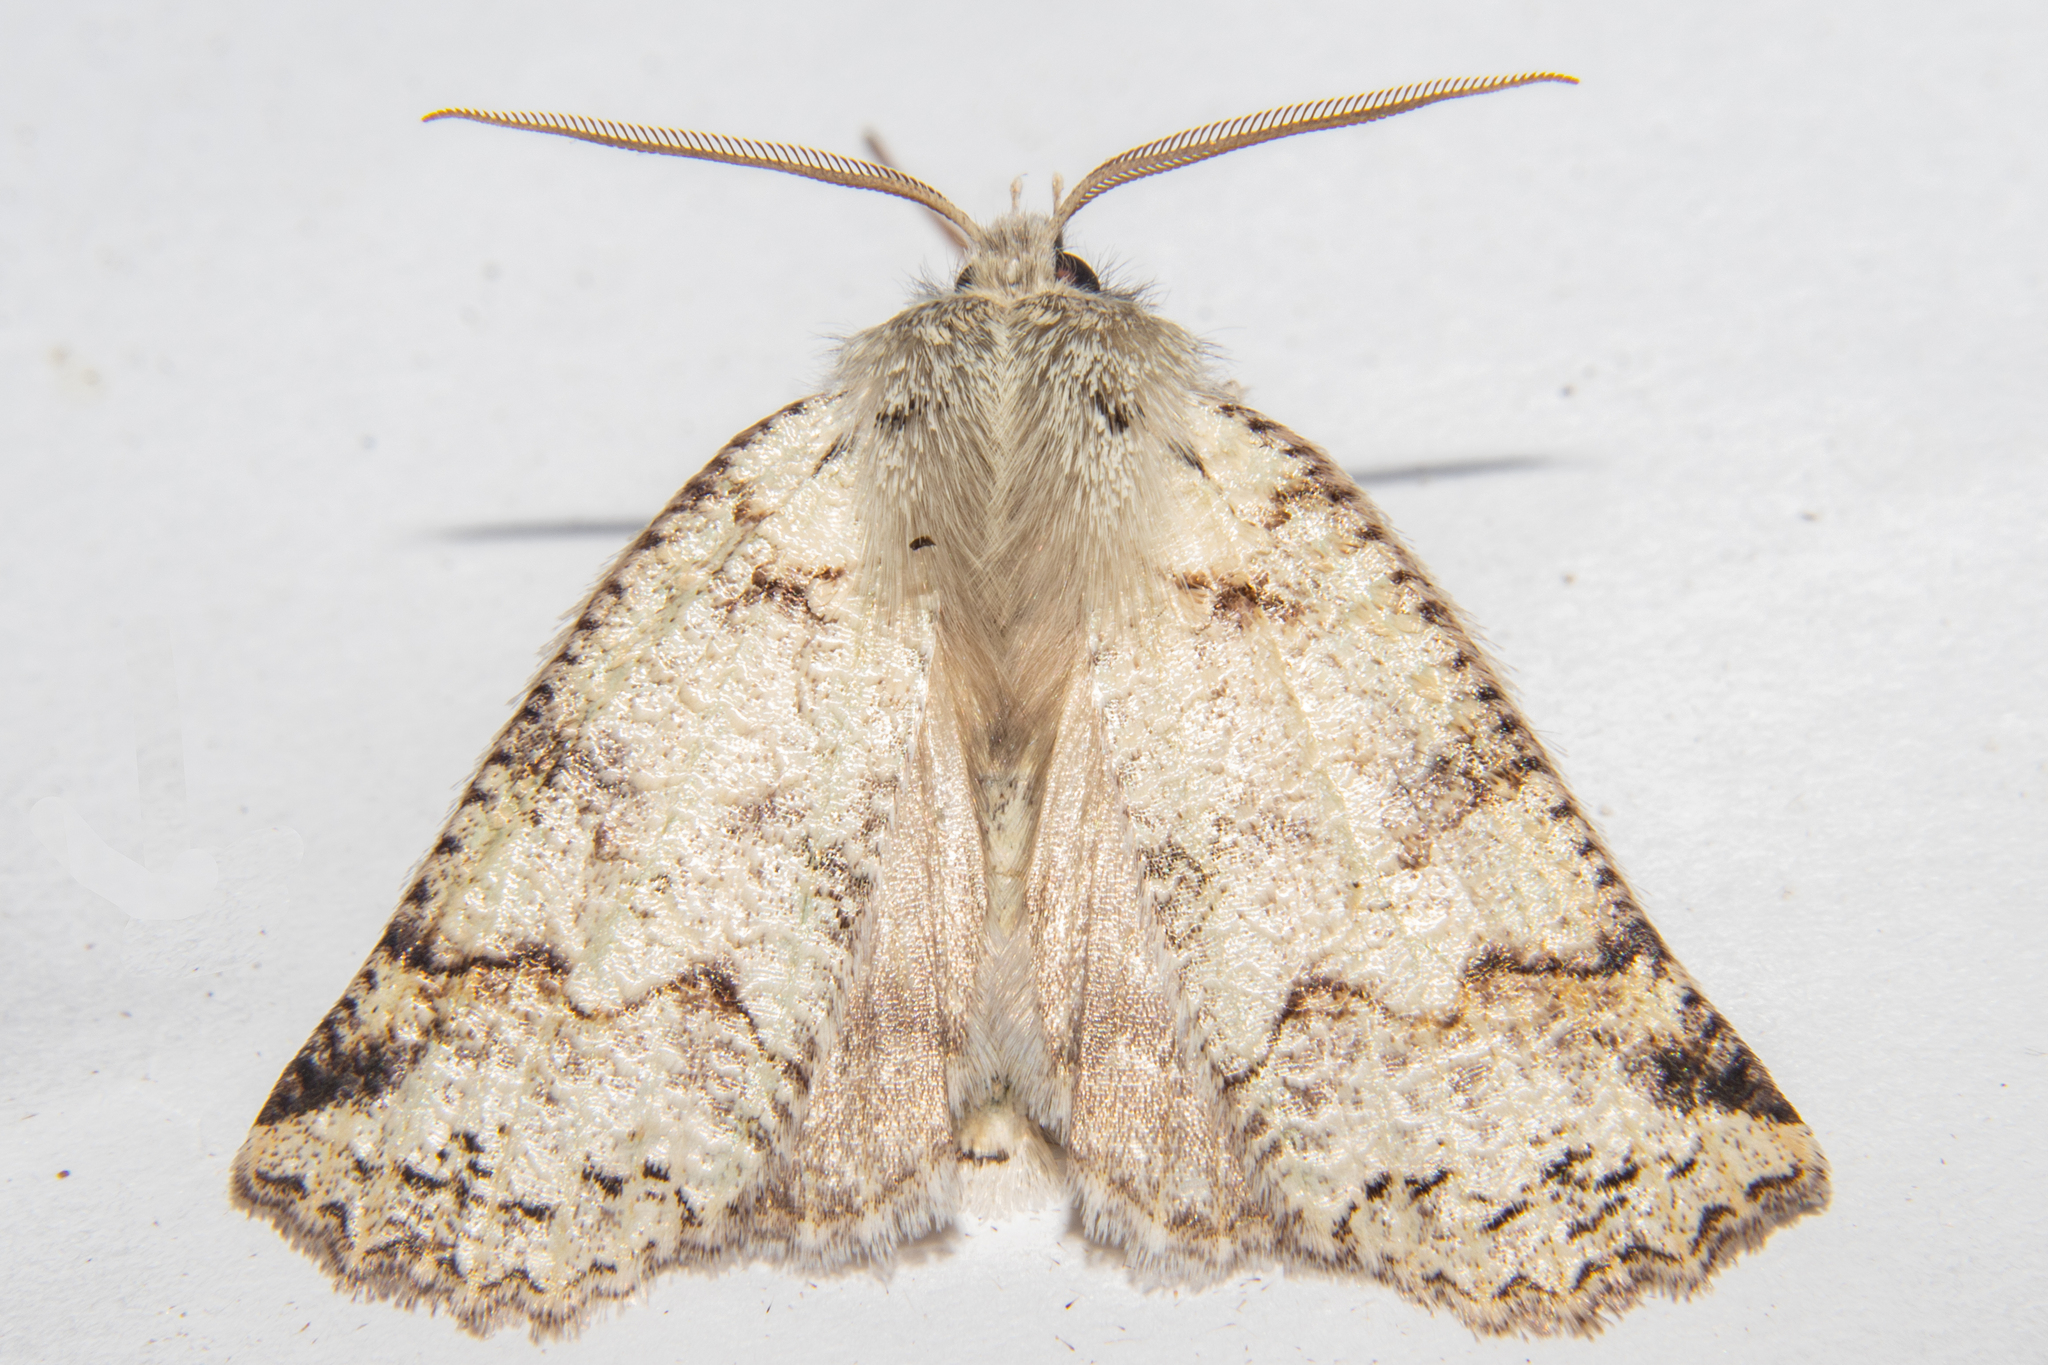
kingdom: Animalia
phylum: Arthropoda
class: Insecta
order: Lepidoptera
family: Geometridae
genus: Declana
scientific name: Declana floccosa
